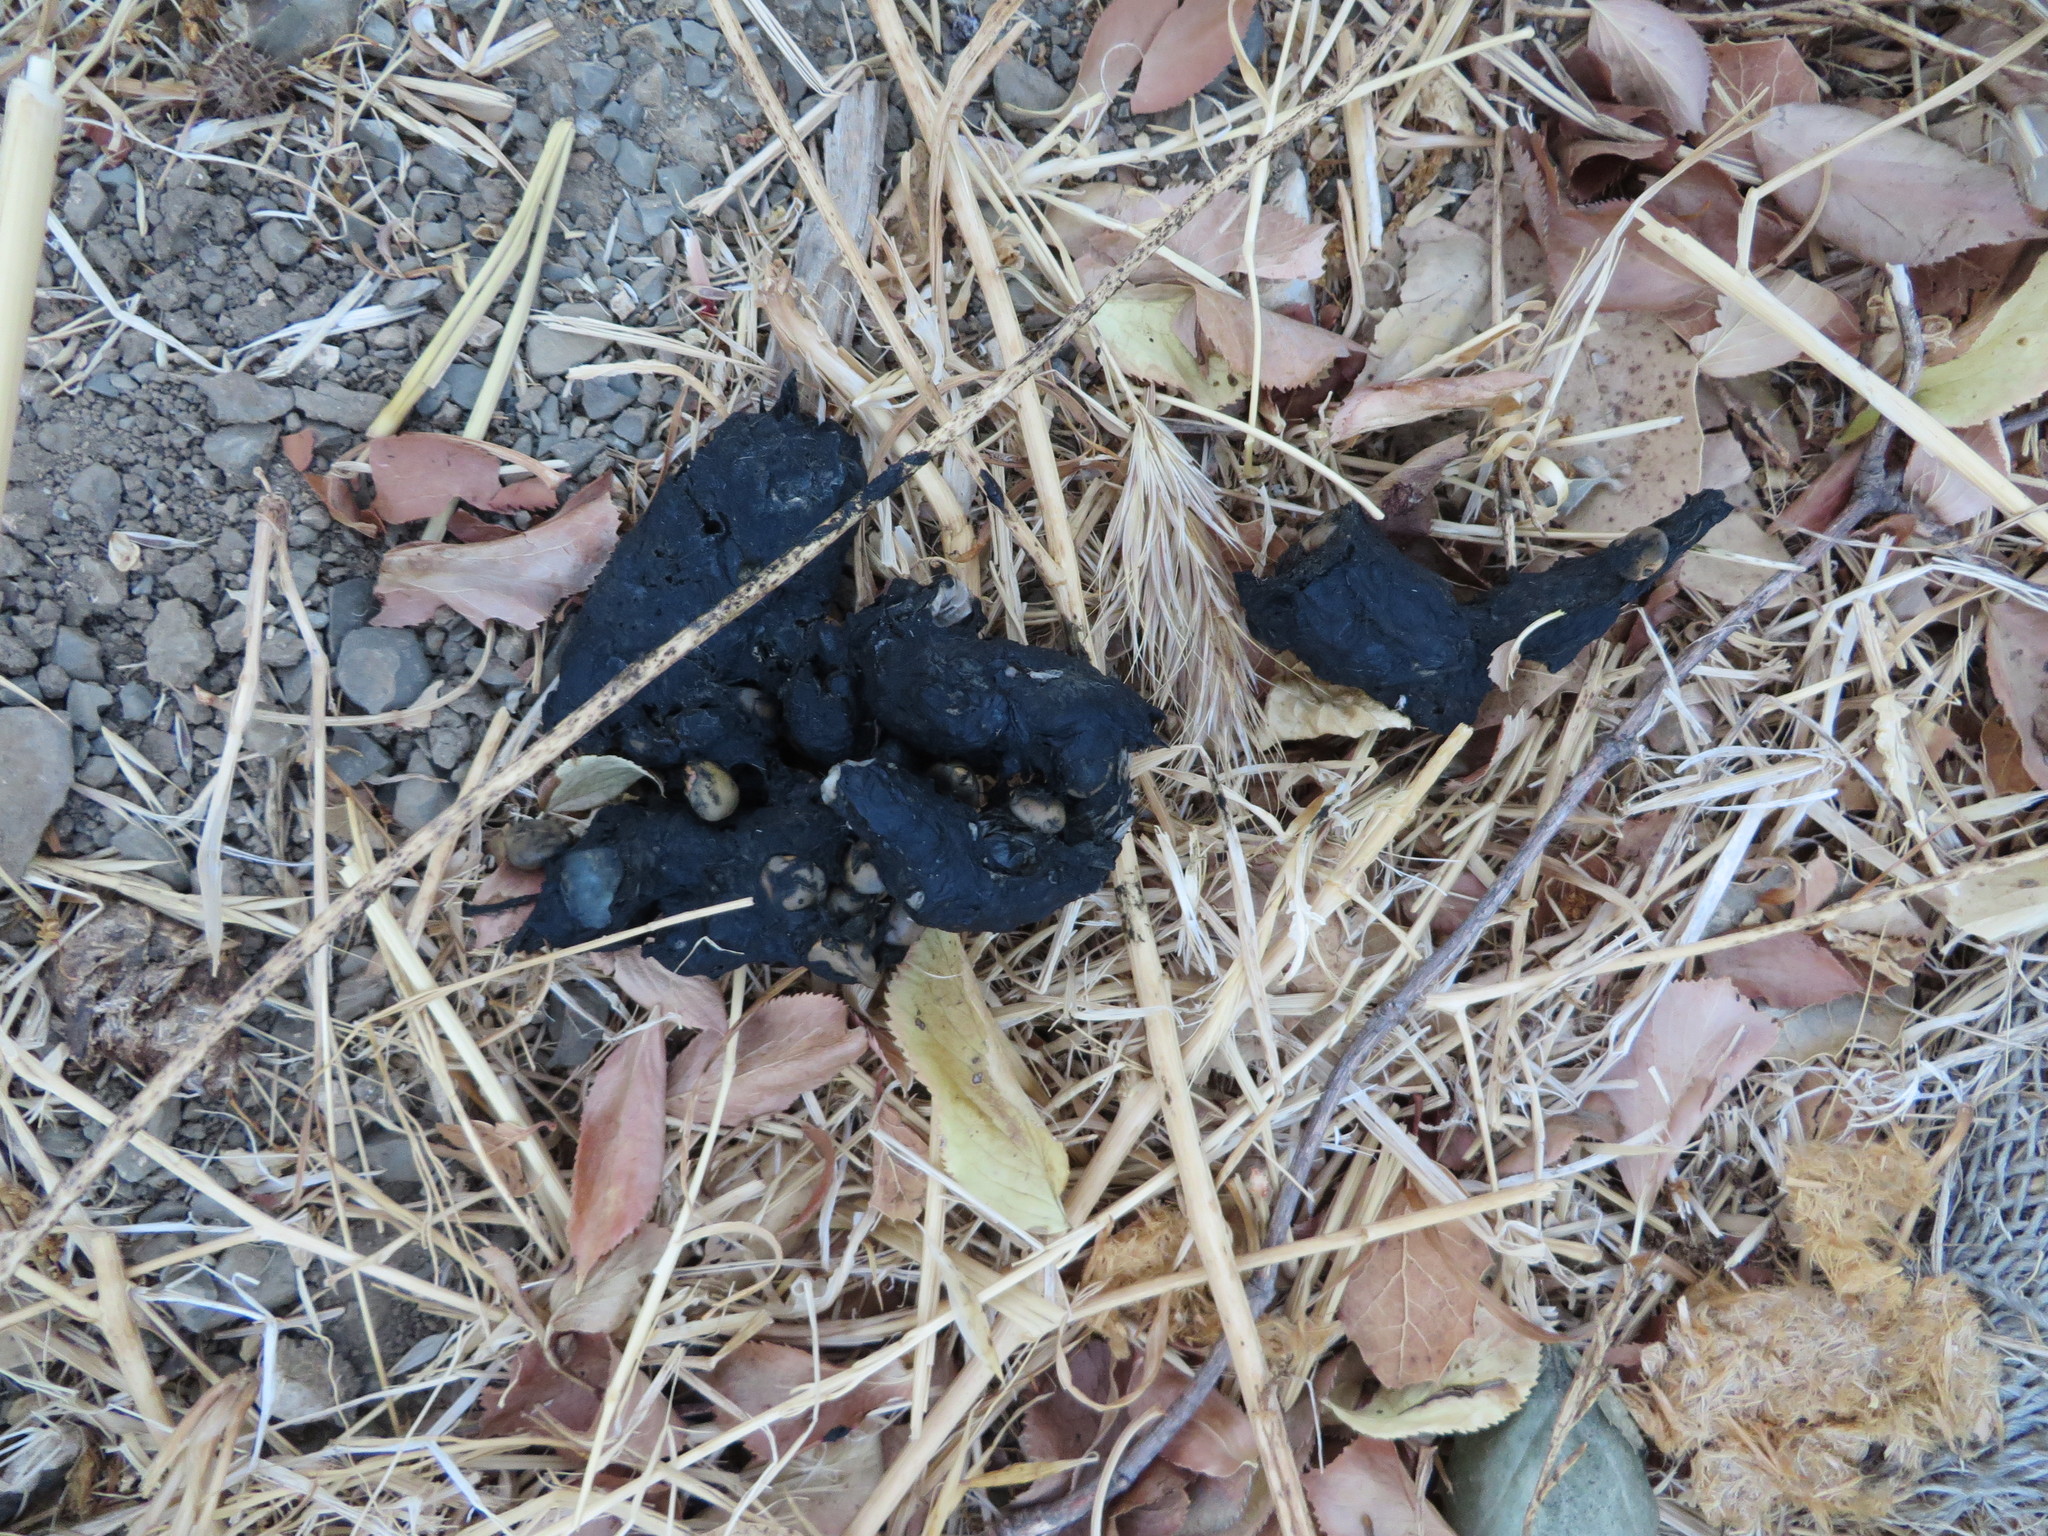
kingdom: Animalia
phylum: Chordata
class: Mammalia
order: Carnivora
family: Ursidae
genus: Ursus
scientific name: Ursus americanus
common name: American black bear
